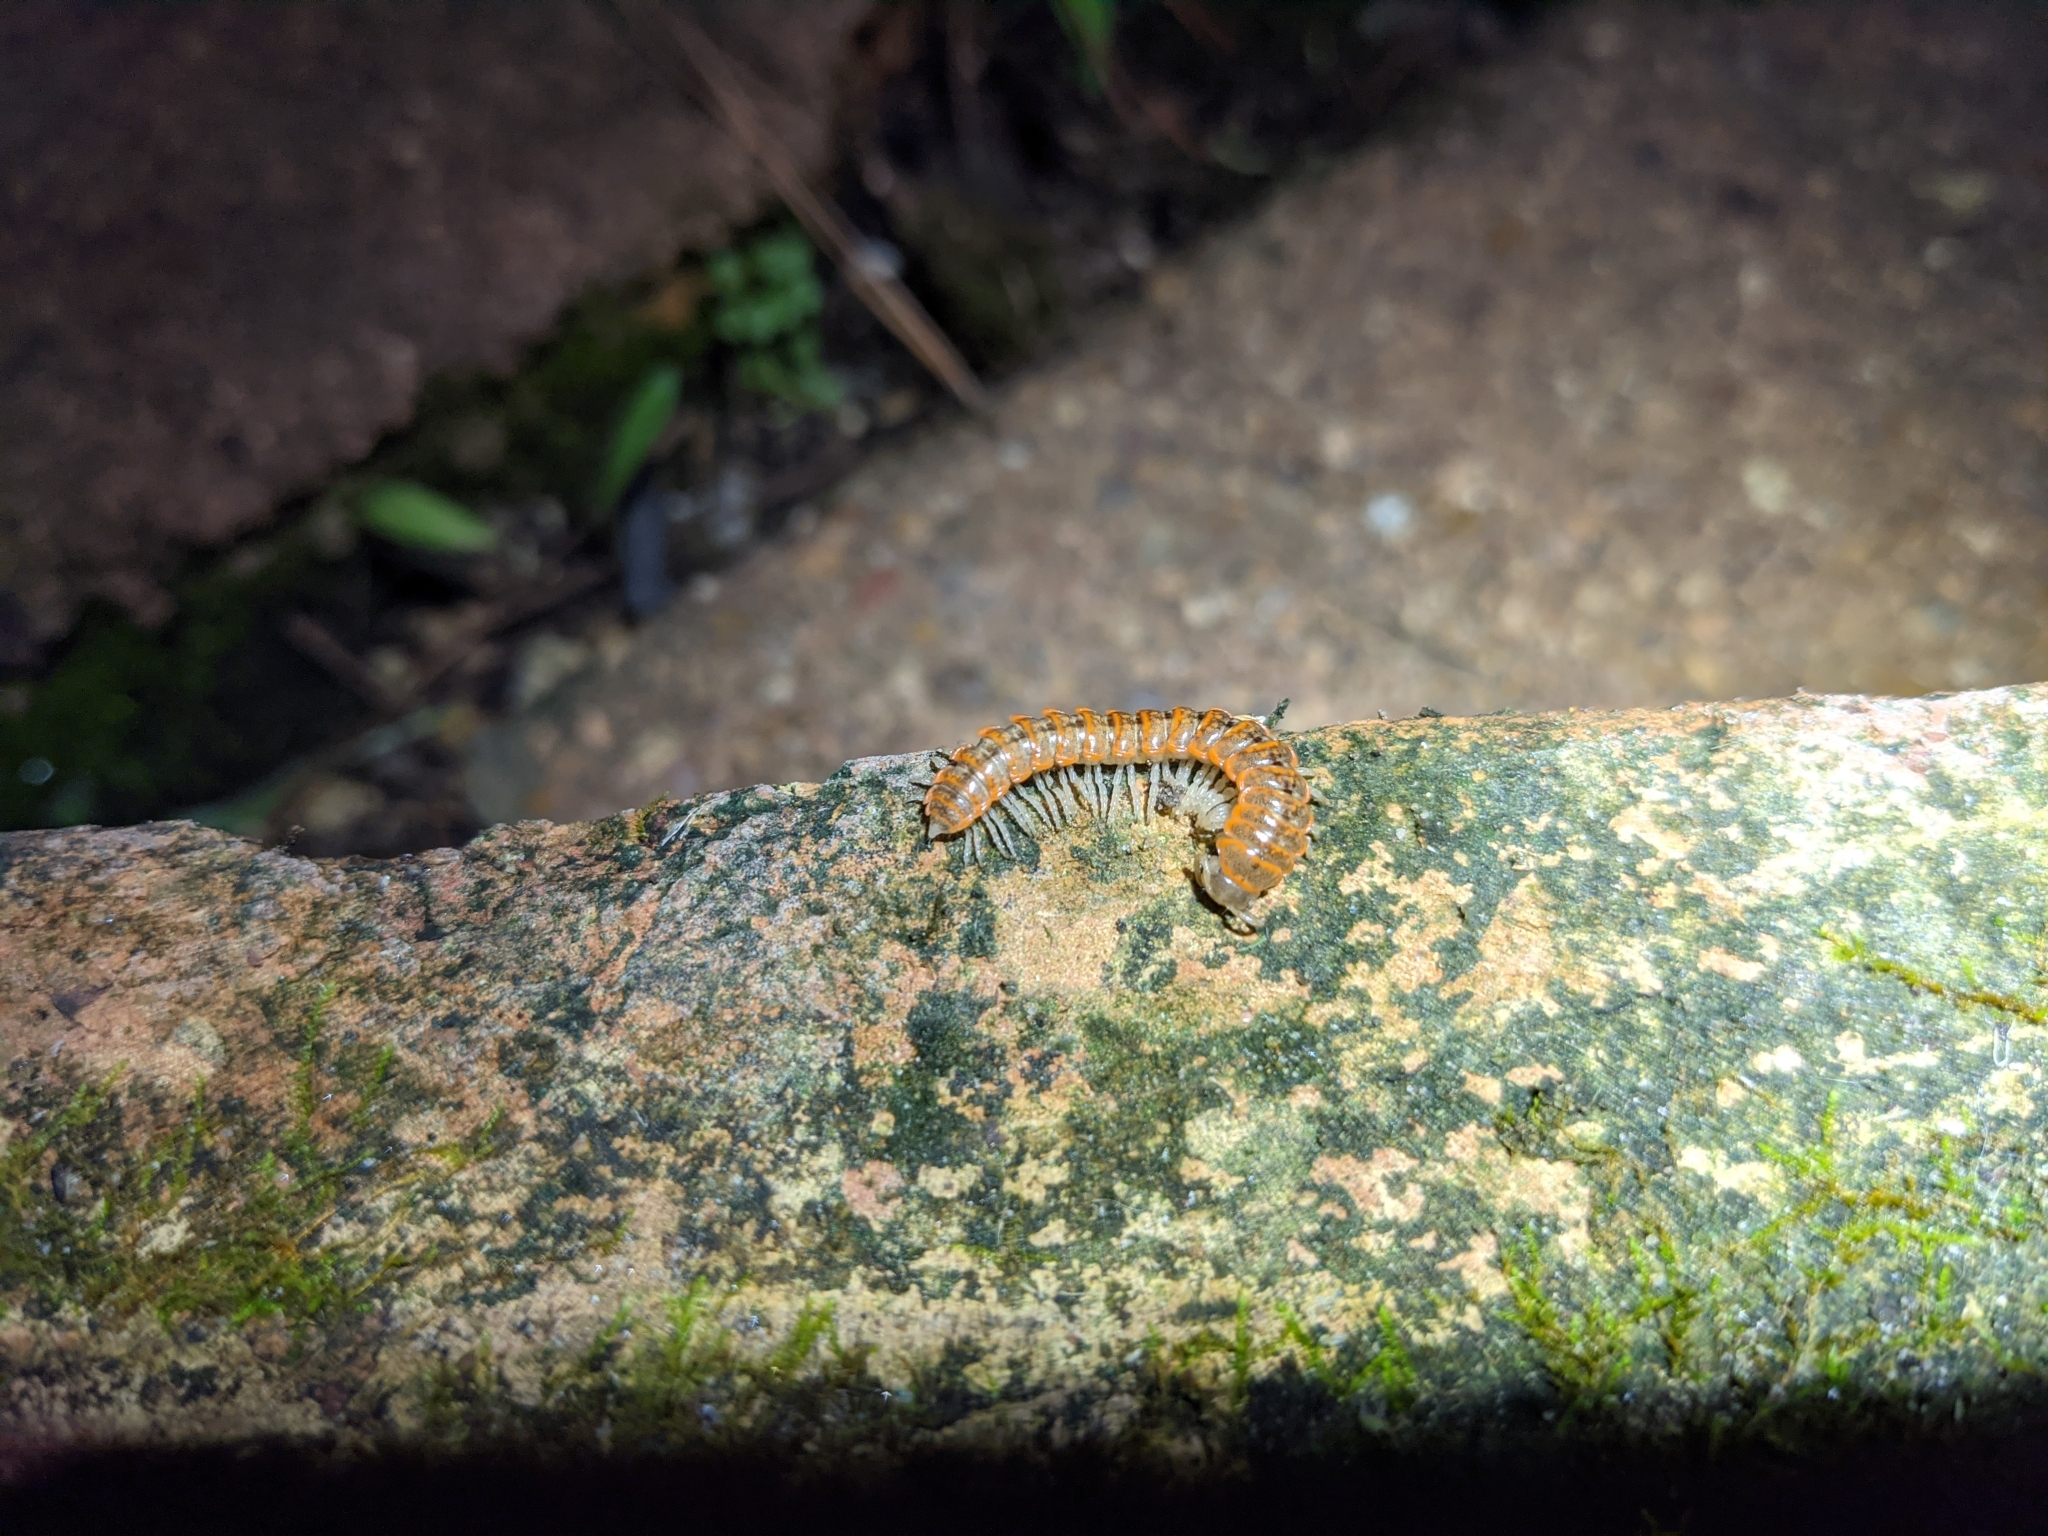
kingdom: Animalia
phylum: Arthropoda
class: Diplopoda
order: Polydesmida
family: Xystodesmidae
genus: Eurymerodesmus
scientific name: Eurymerodesmus
